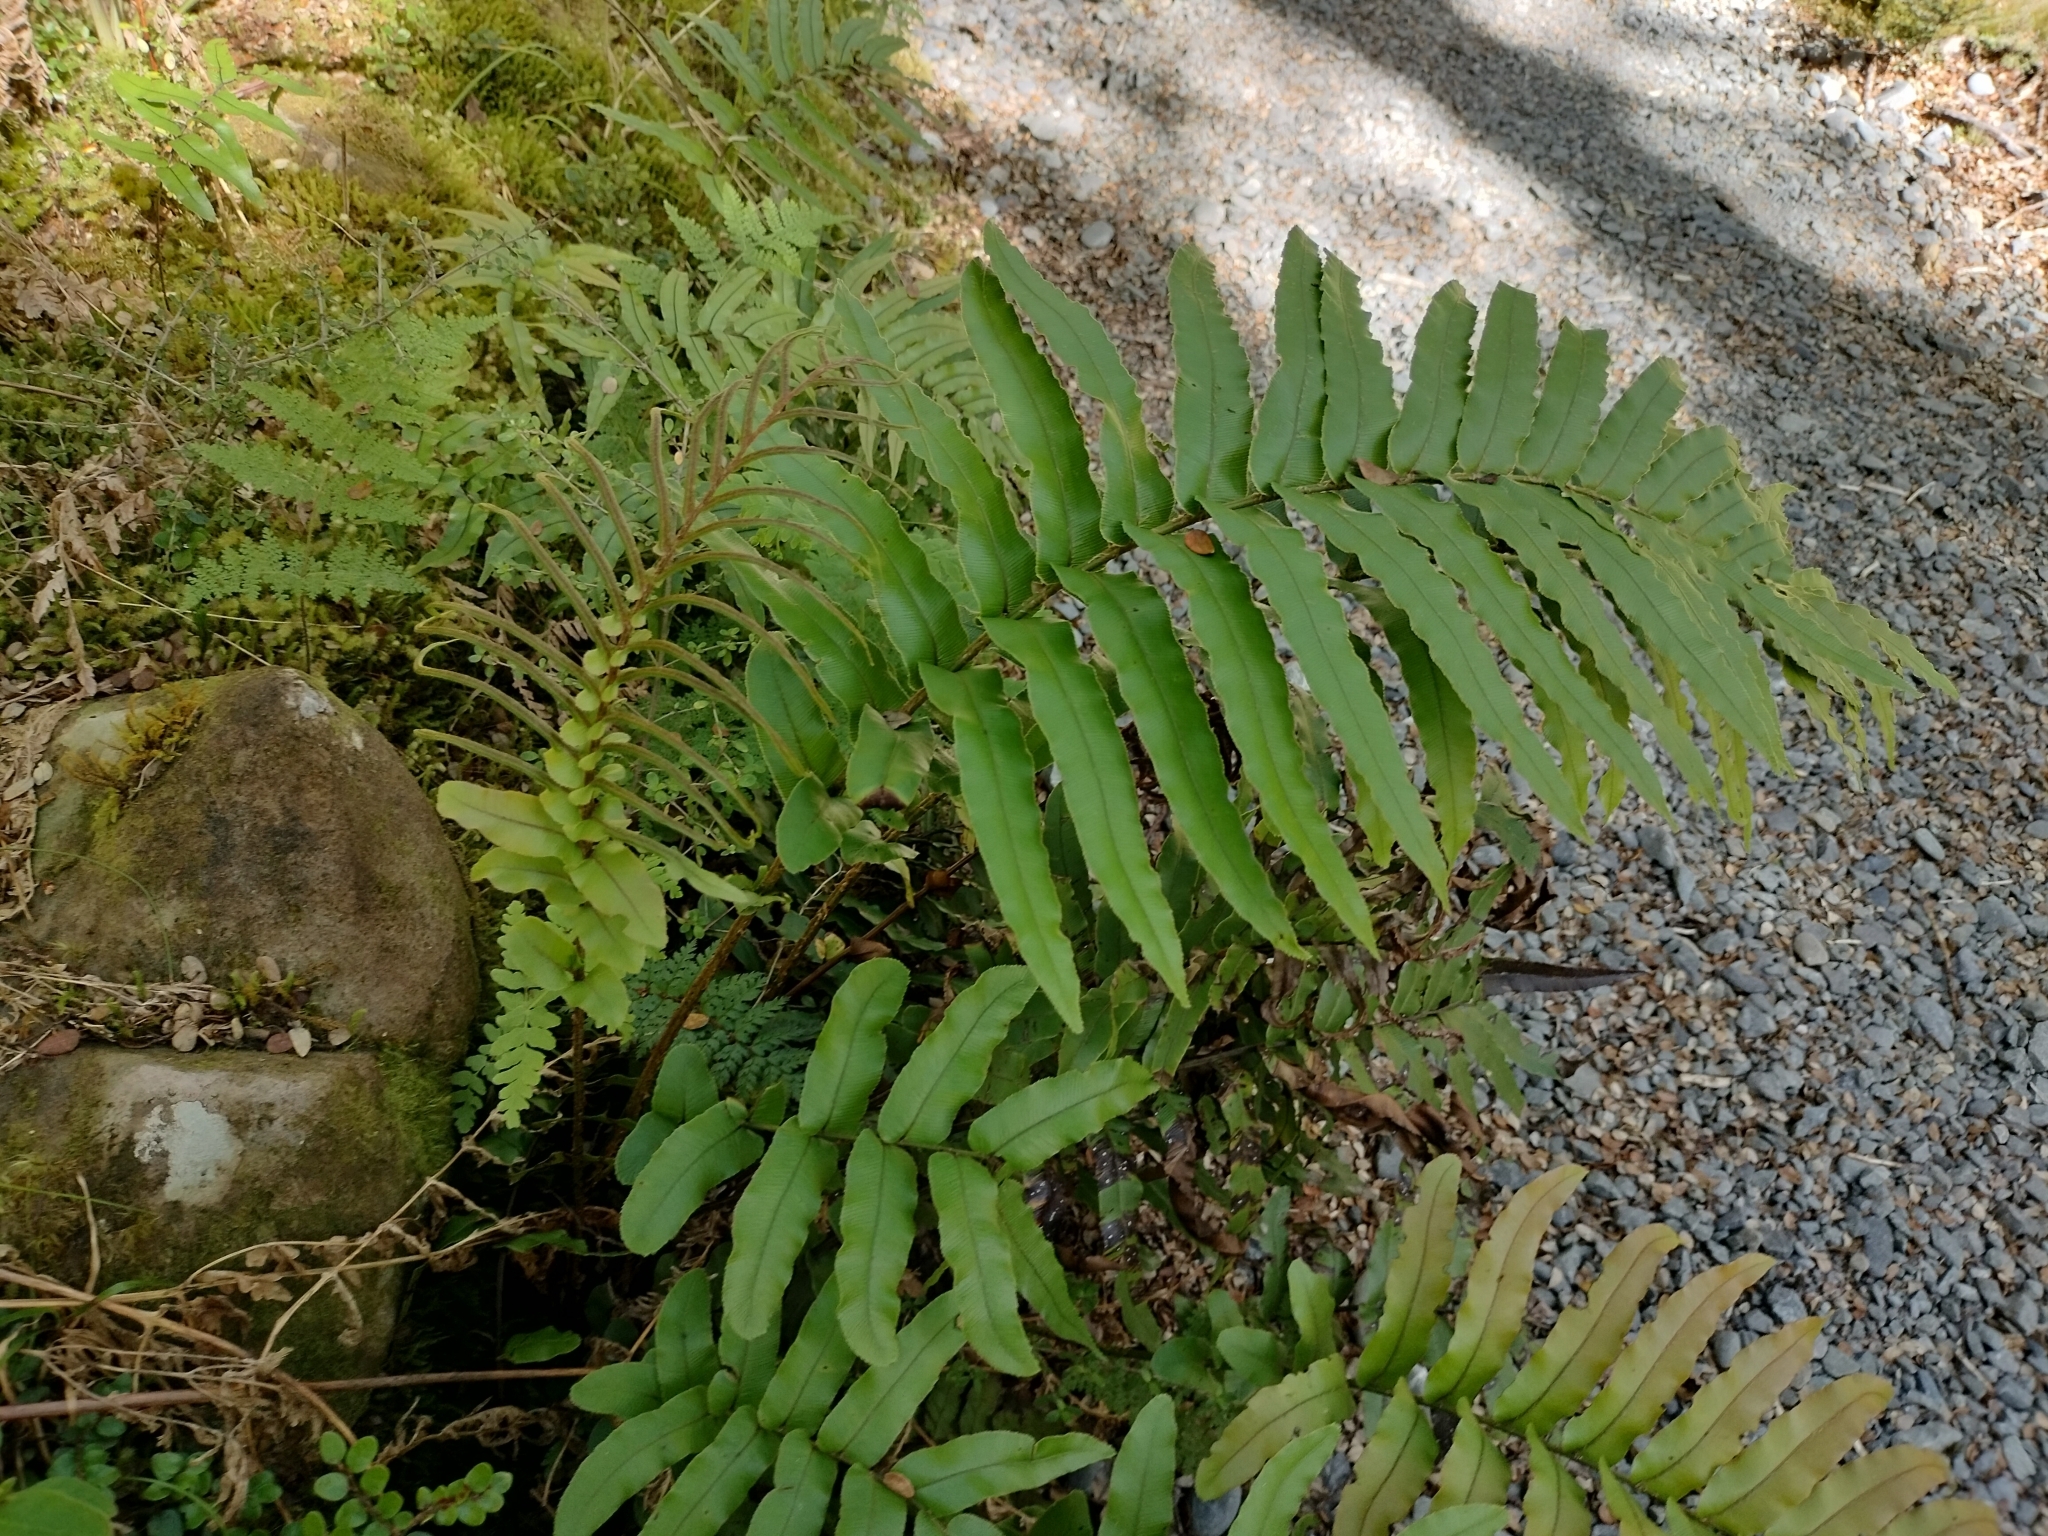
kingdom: Plantae
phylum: Tracheophyta
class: Polypodiopsida
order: Polypodiales
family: Blechnaceae
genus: Parablechnum
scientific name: Parablechnum novae-zelandiae
